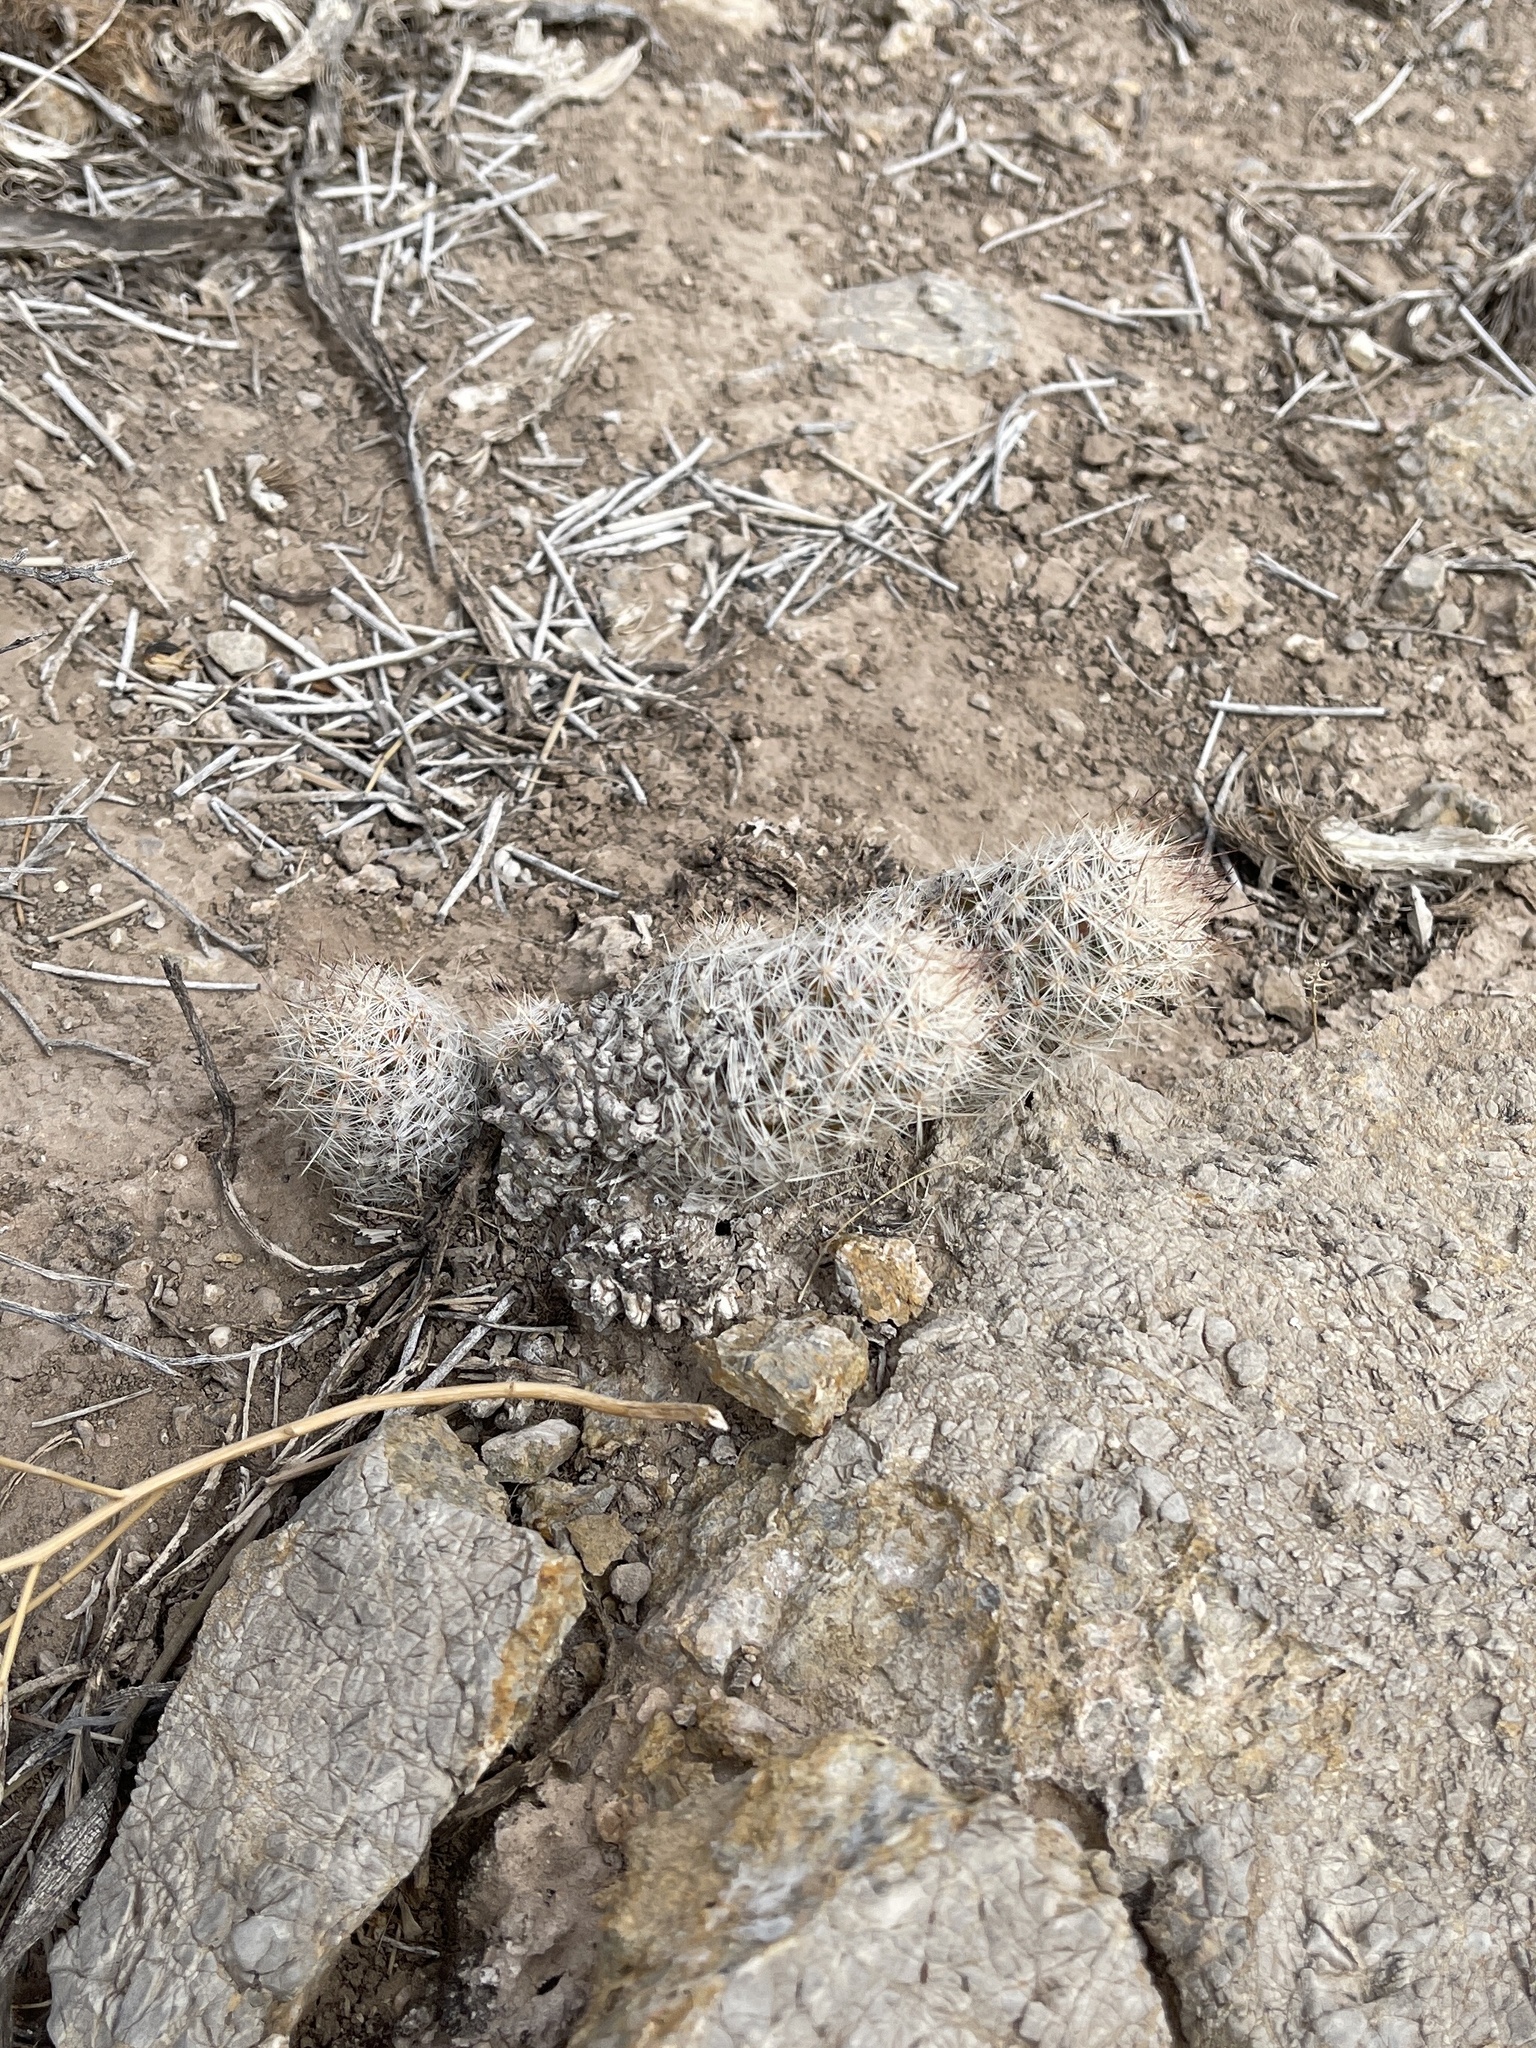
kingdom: Plantae
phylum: Tracheophyta
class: Magnoliopsida
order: Caryophyllales
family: Cactaceae
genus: Pelecyphora
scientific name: Pelecyphora tuberculosa
